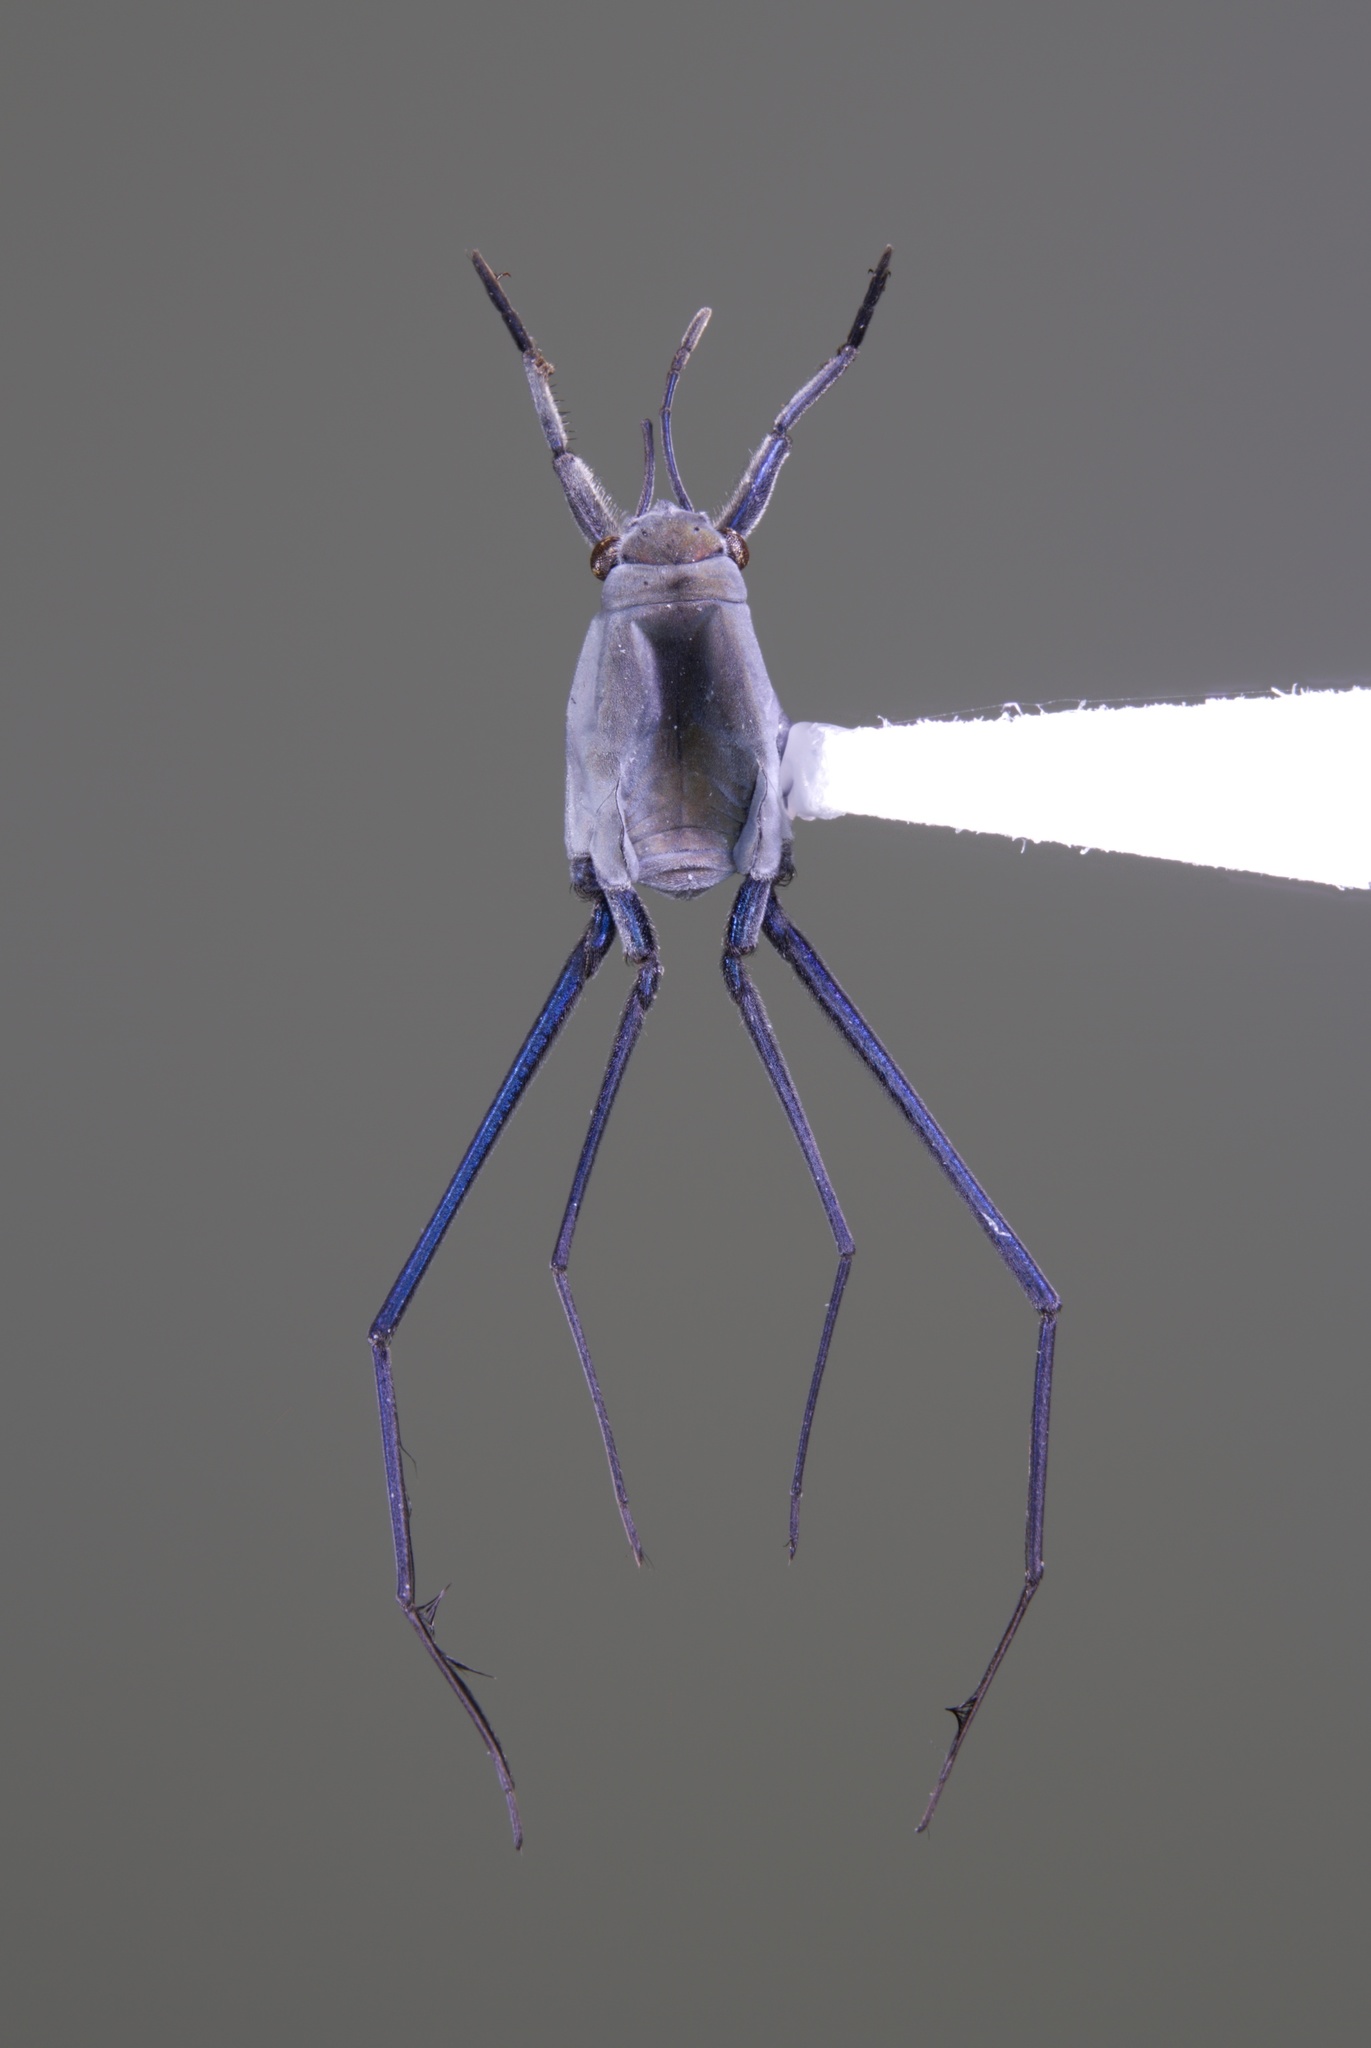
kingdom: Animalia
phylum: Arthropoda
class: Insecta
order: Hemiptera
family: Gerridae
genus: Halobates
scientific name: Halobates micans
